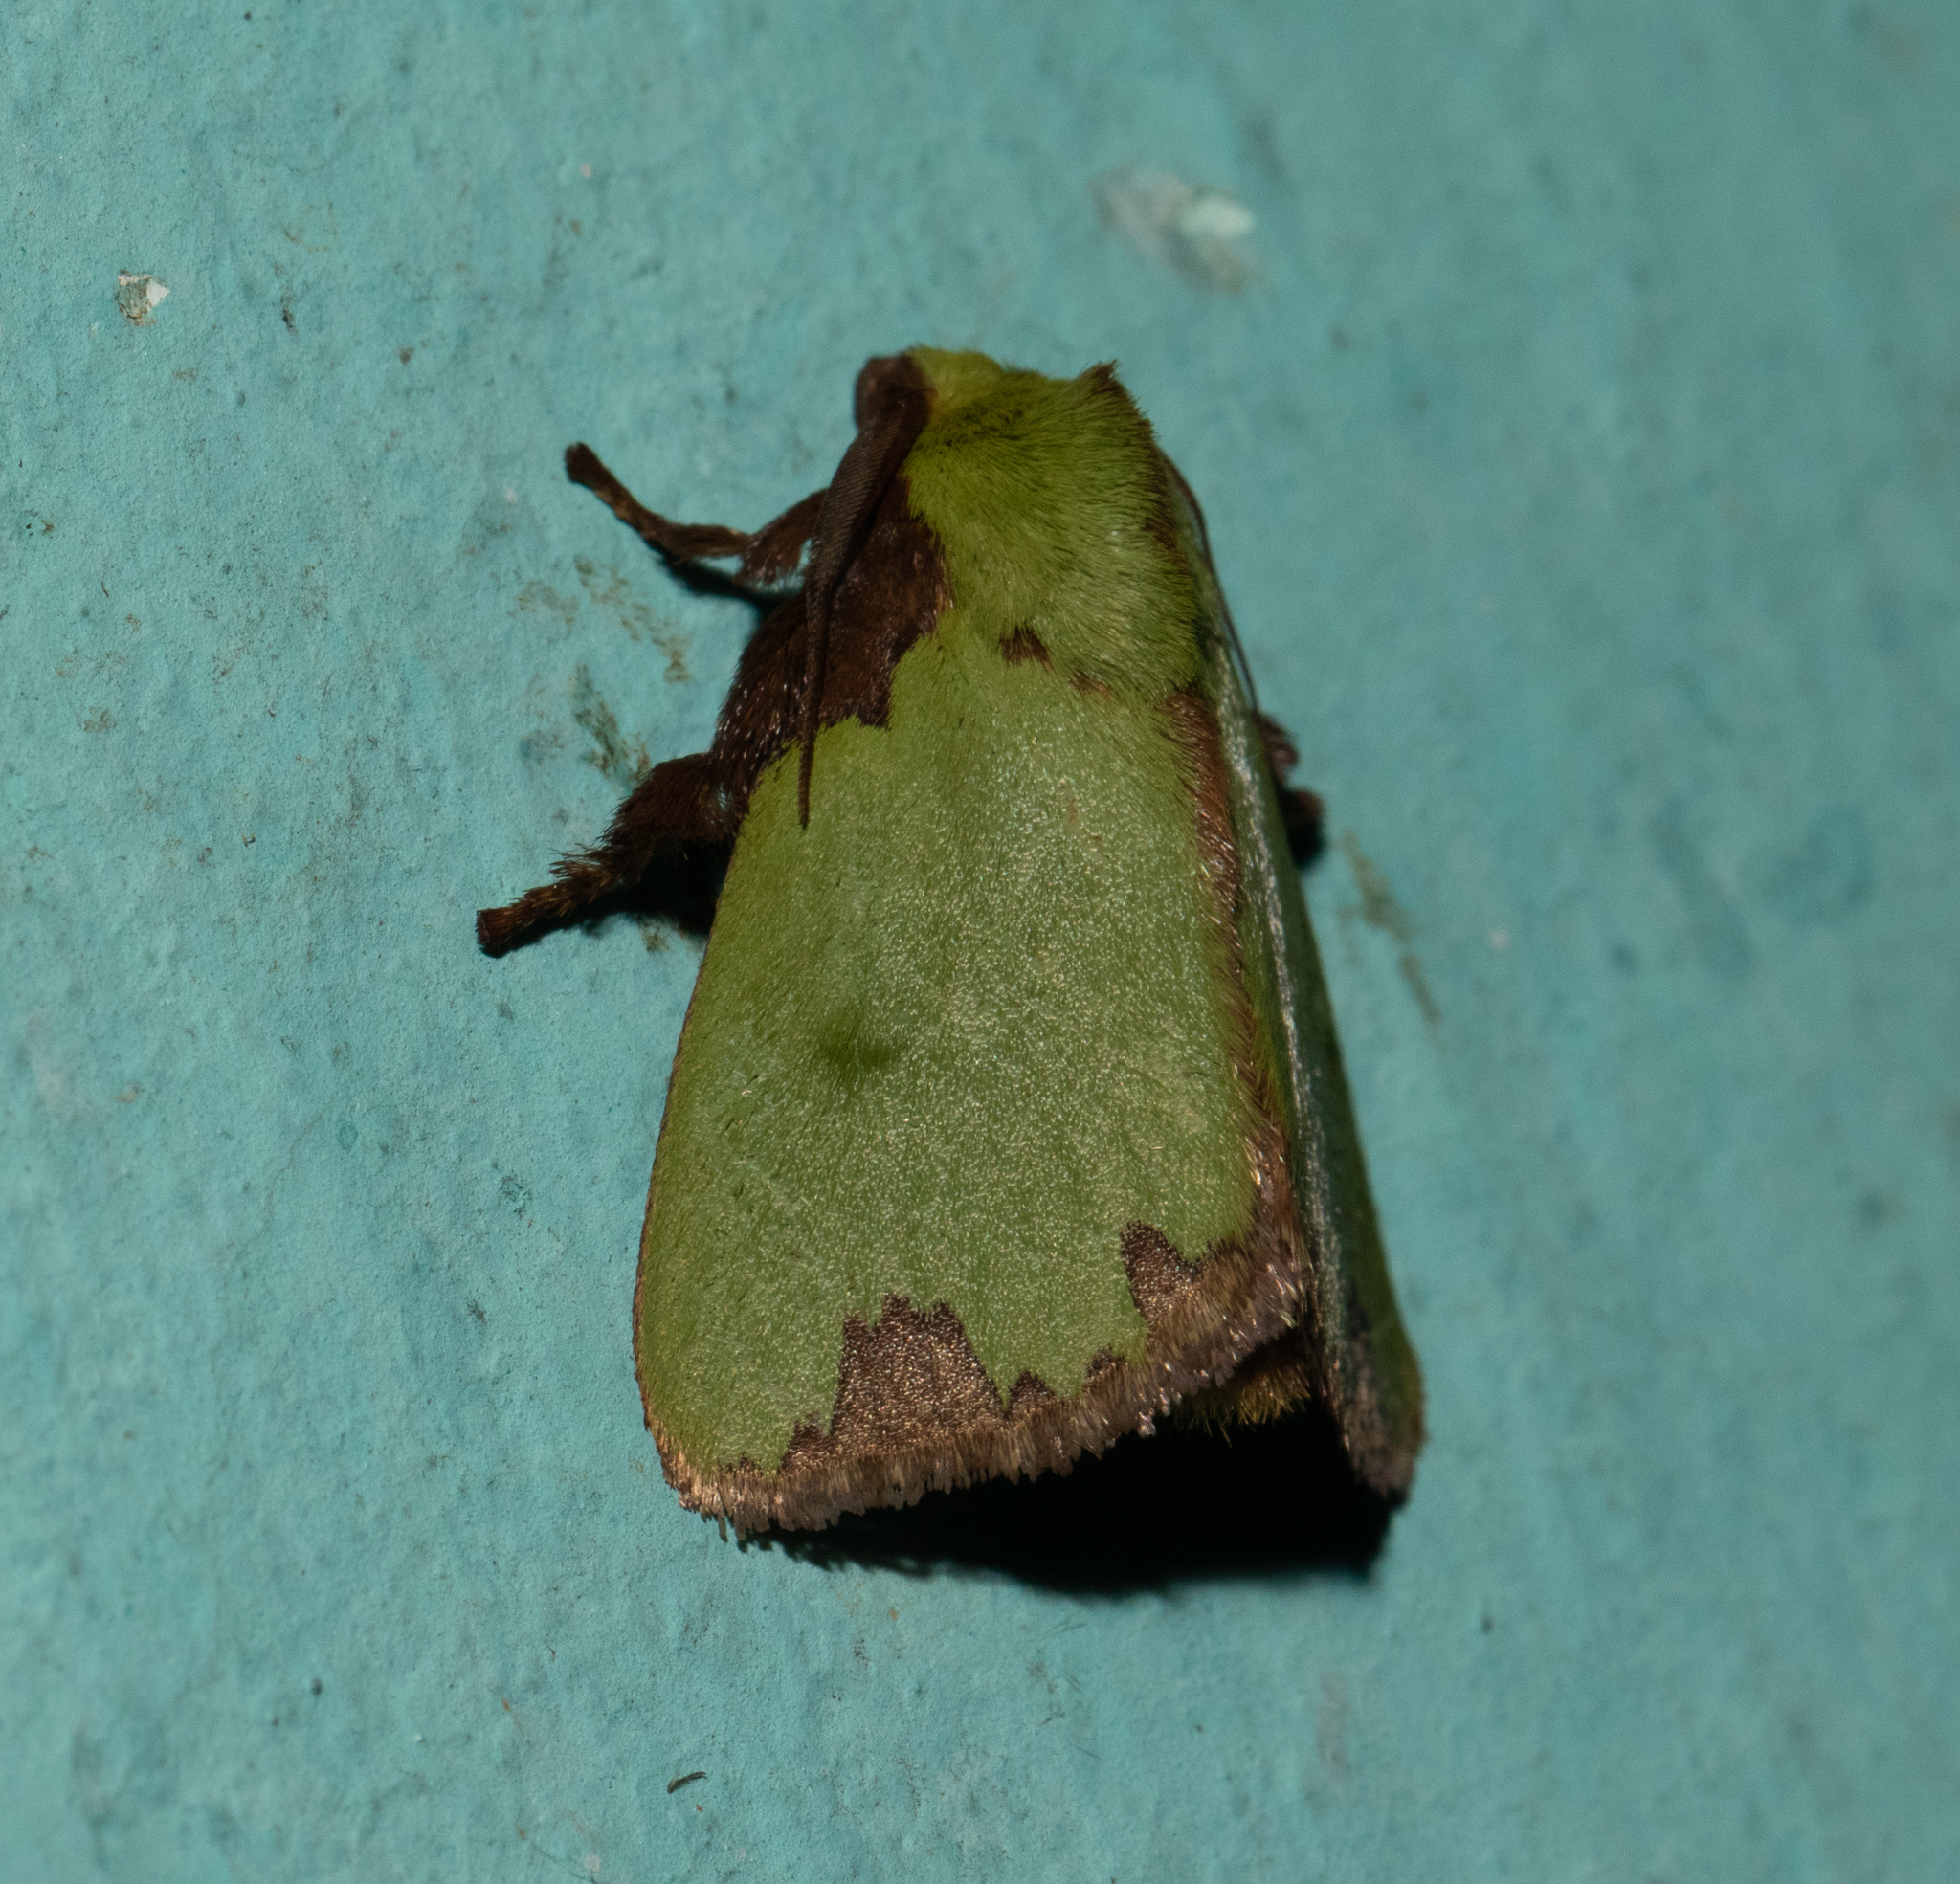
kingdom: Animalia
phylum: Arthropoda
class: Insecta
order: Lepidoptera
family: Limacodidae
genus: Parasa
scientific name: Parasa imitata
